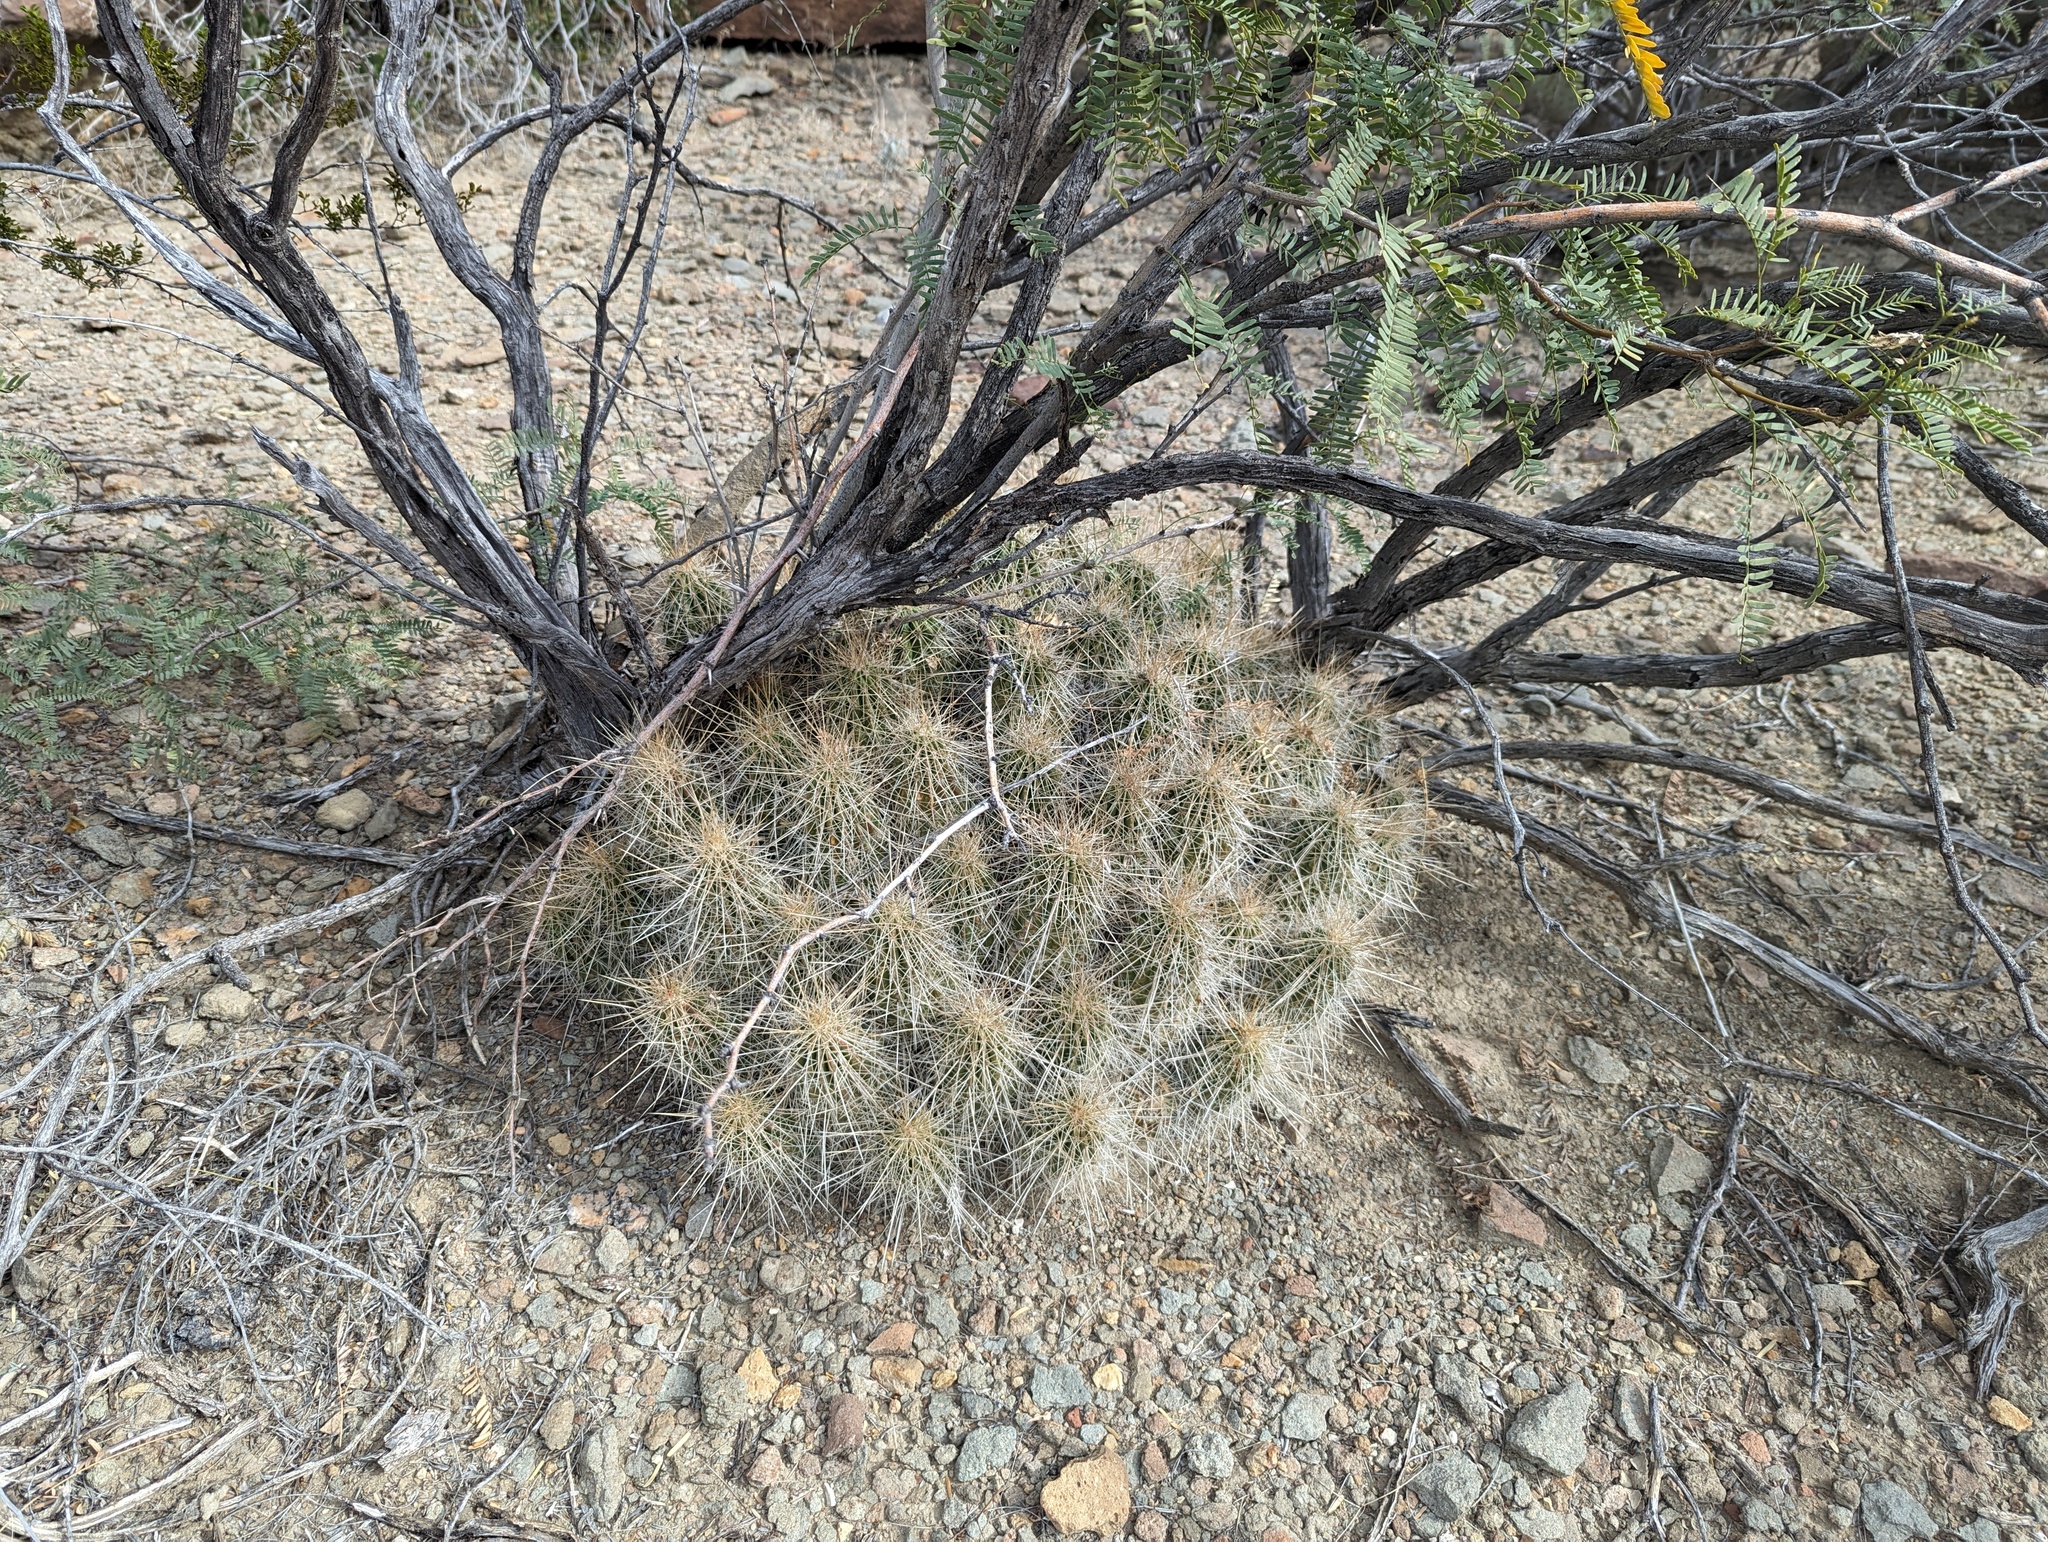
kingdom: Plantae
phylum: Tracheophyta
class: Magnoliopsida
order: Caryophyllales
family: Cactaceae
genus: Echinocereus
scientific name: Echinocereus stramineus
